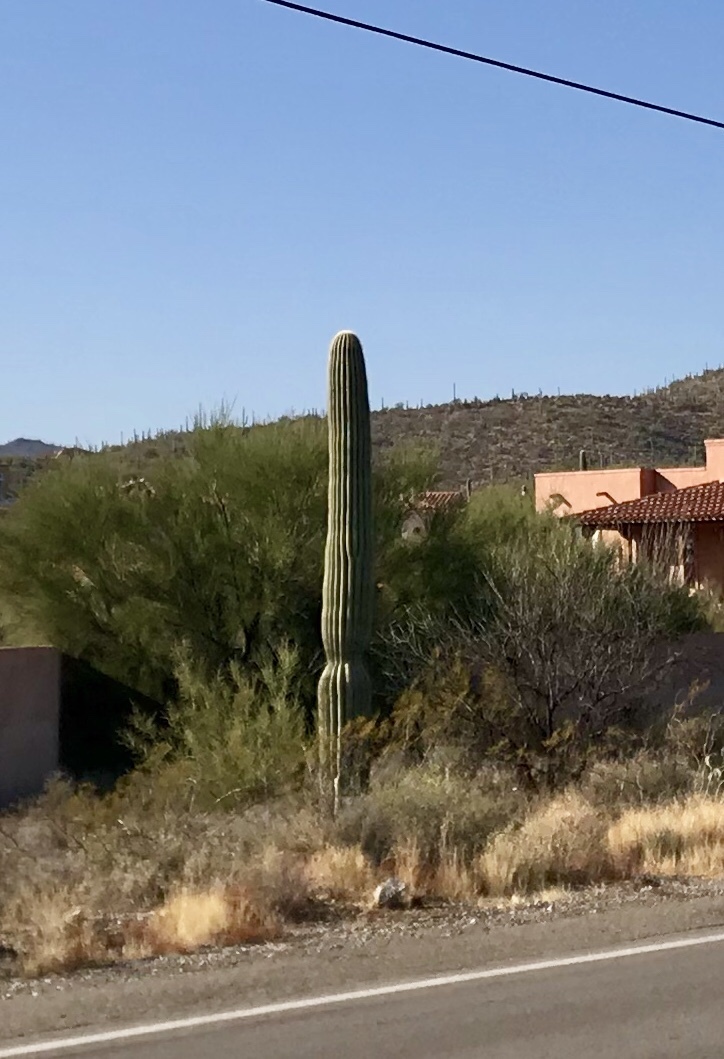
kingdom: Plantae
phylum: Tracheophyta
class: Magnoliopsida
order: Caryophyllales
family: Cactaceae
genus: Carnegiea
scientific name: Carnegiea gigantea
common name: Saguaro
